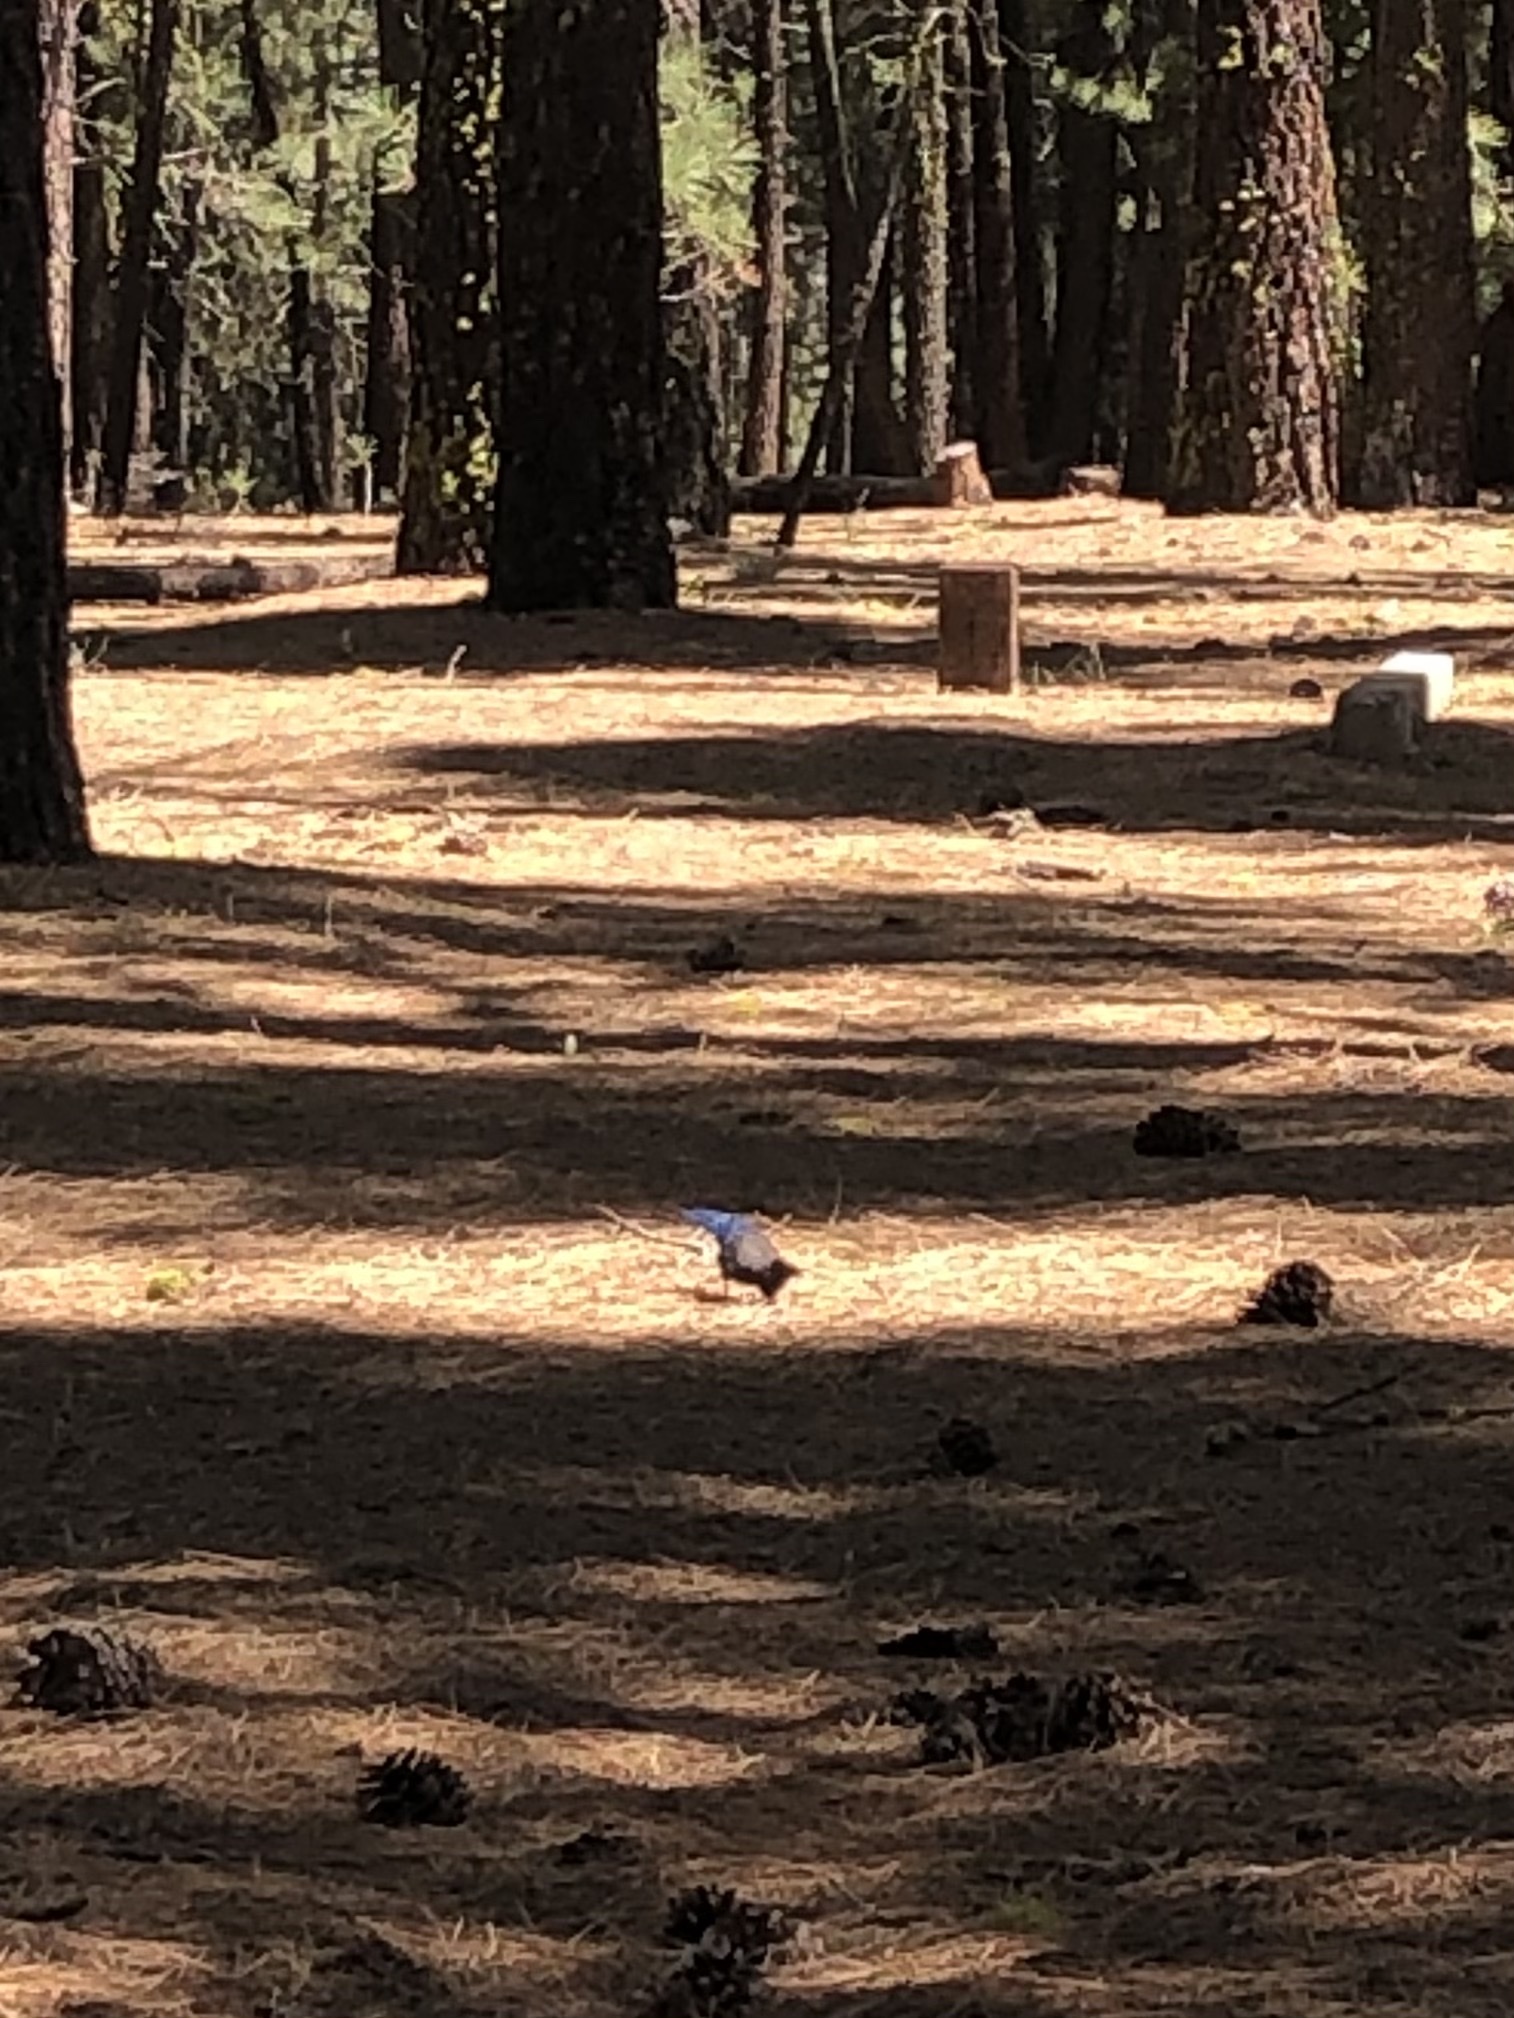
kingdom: Animalia
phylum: Chordata
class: Aves
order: Passeriformes
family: Corvidae
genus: Cyanocitta
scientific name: Cyanocitta stelleri
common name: Steller's jay
